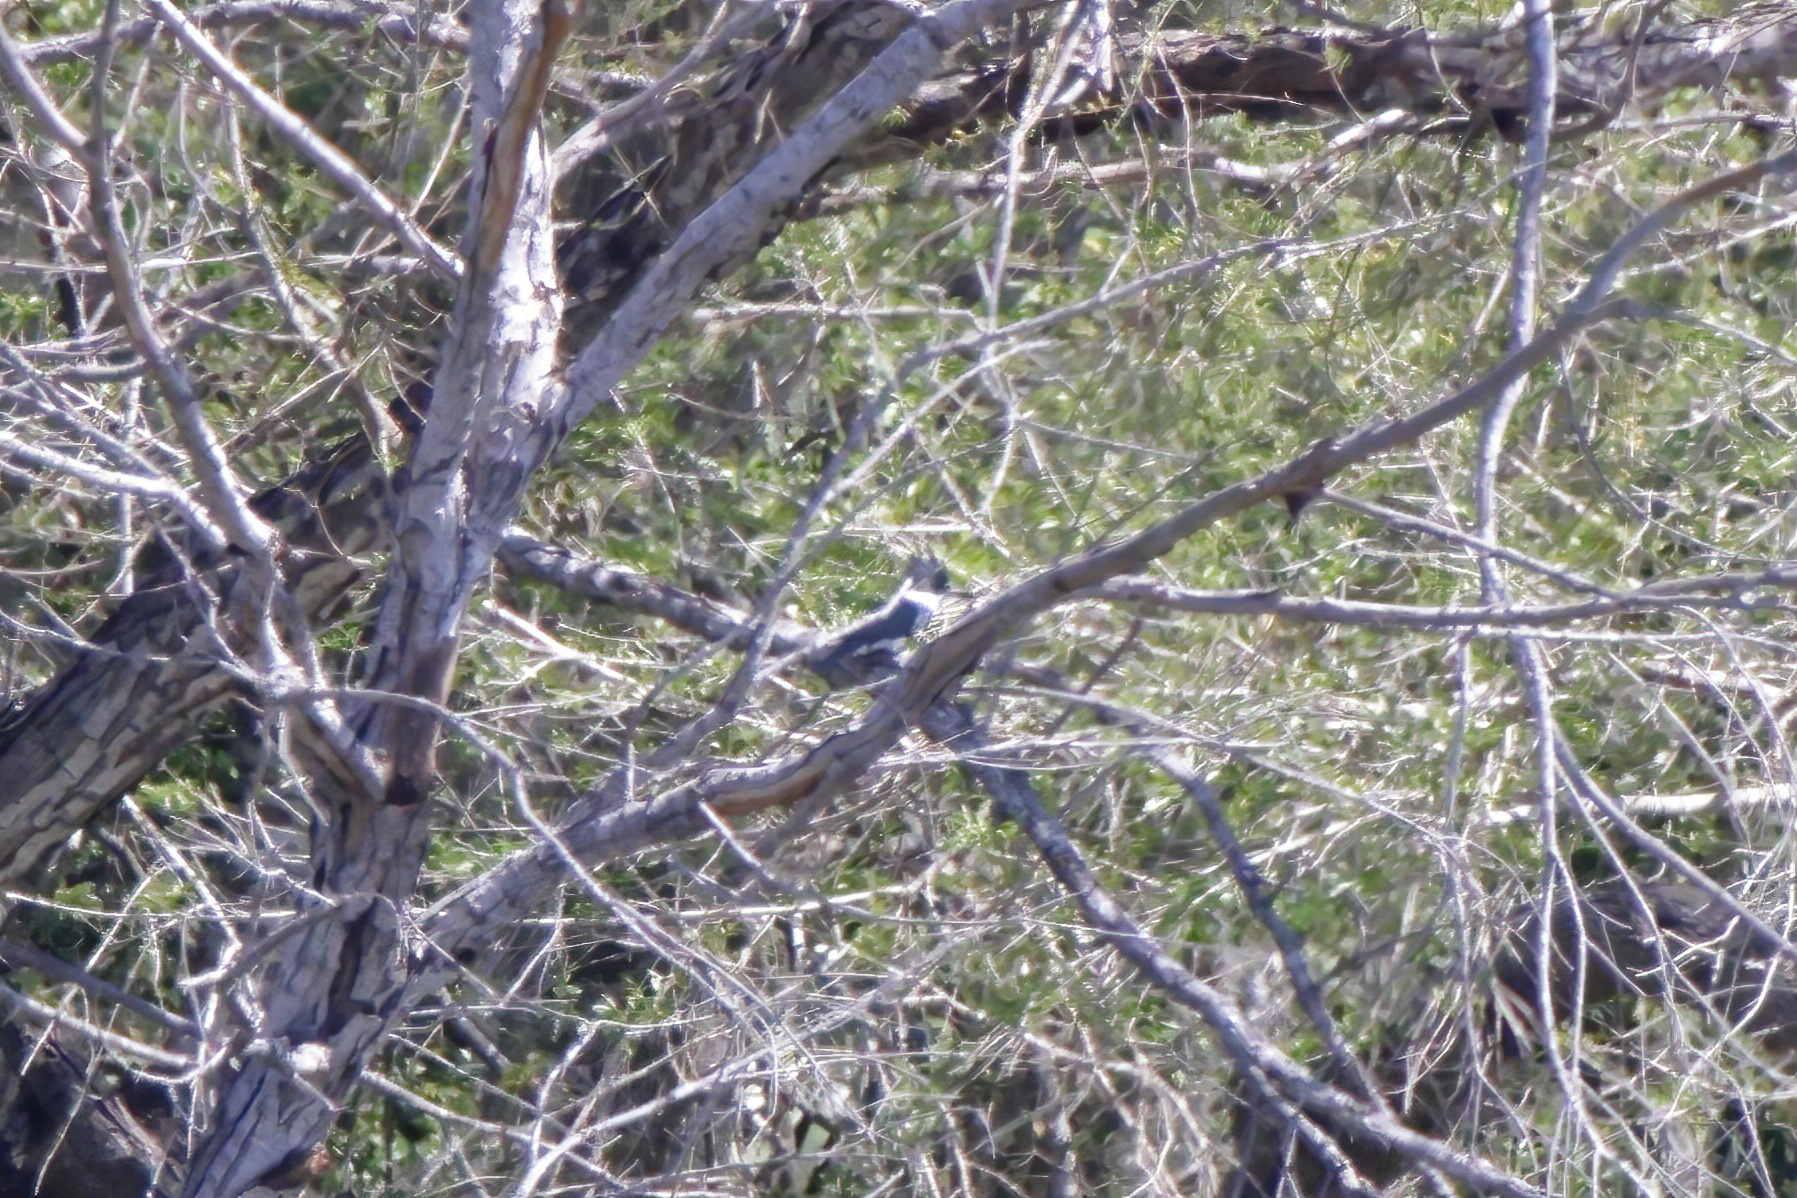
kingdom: Animalia
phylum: Chordata
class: Aves
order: Coraciiformes
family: Alcedinidae
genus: Megaceryle
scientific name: Megaceryle alcyon
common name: Belted kingfisher
